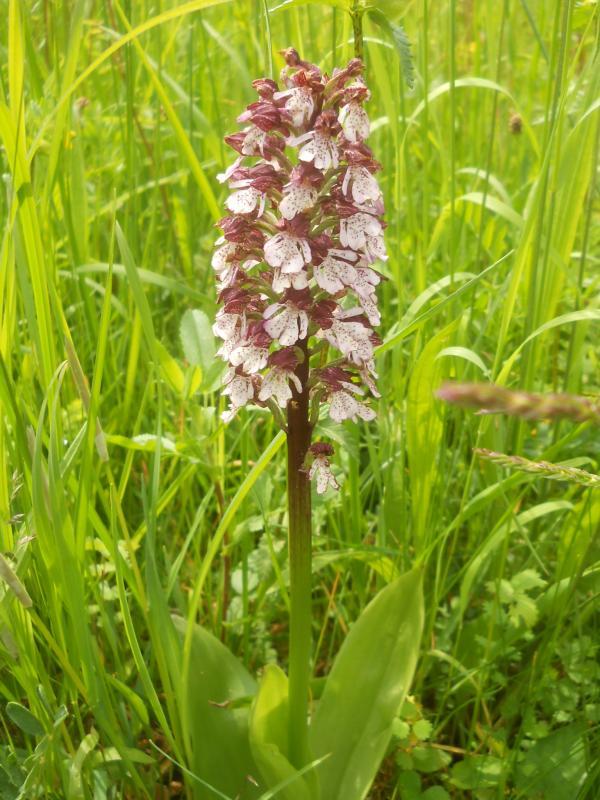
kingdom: Plantae
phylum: Tracheophyta
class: Liliopsida
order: Asparagales
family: Orchidaceae
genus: Orchis
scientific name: Orchis purpurea
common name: Lady orchid
